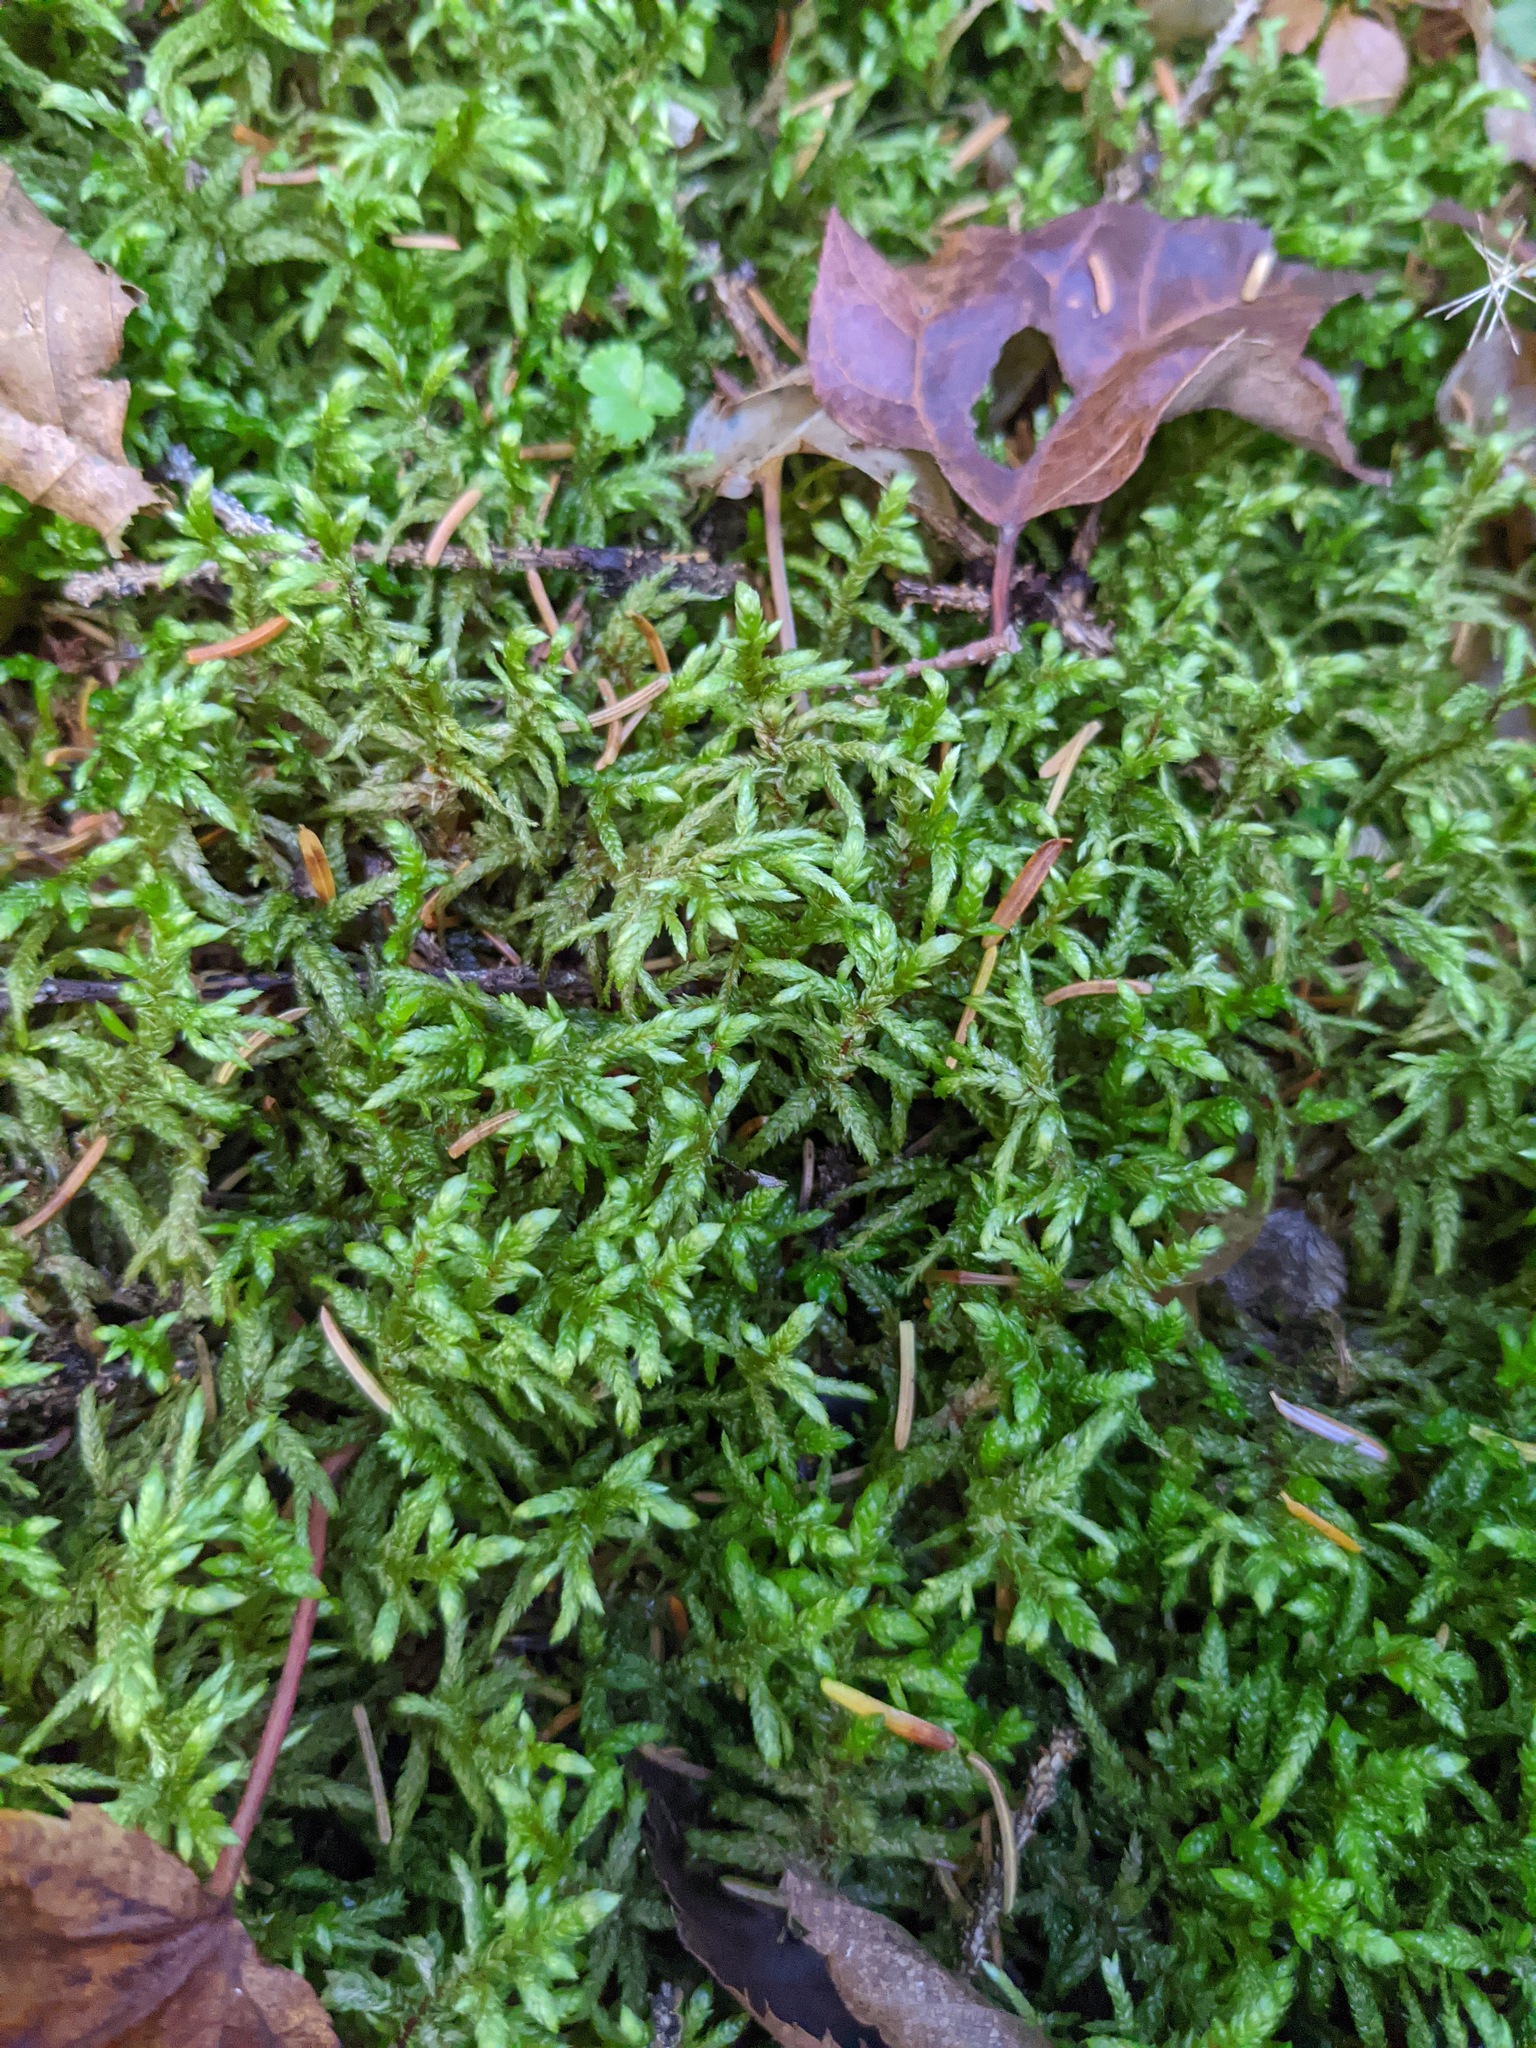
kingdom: Plantae
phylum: Bryophyta
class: Bryopsida
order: Hypnales
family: Hylocomiaceae
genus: Pleurozium
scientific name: Pleurozium schreberi
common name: Red-stemmed feather moss
